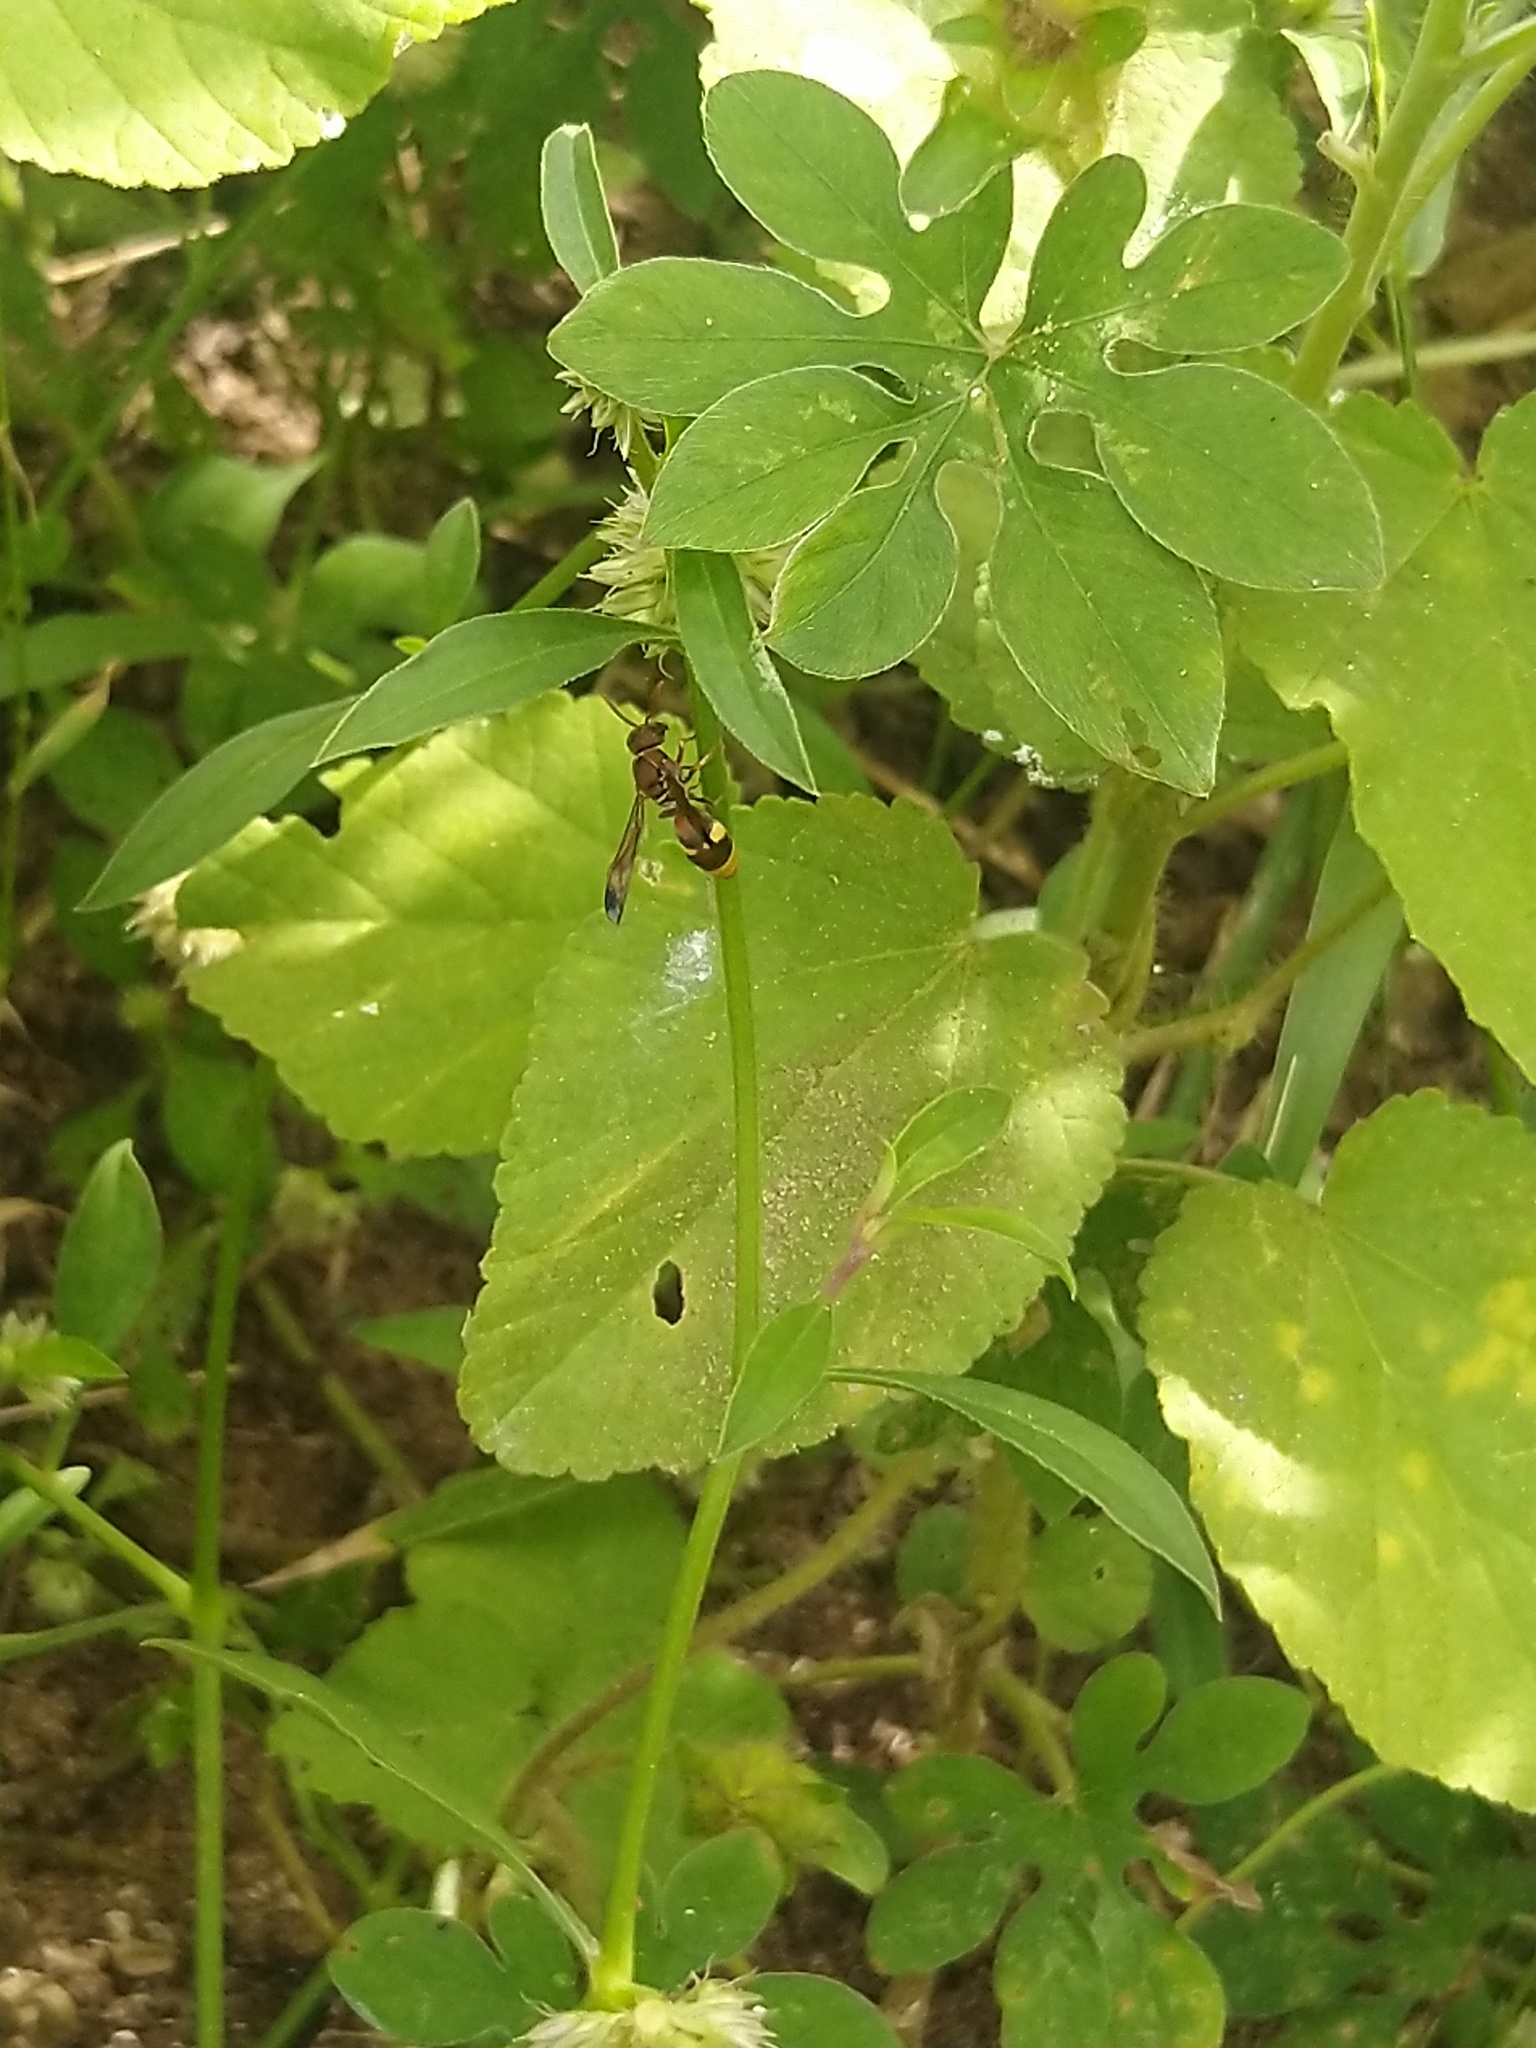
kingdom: Animalia
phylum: Arthropoda
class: Insecta
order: Hymenoptera
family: Eumenidae
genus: Antodynerus
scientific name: Antodynerus punctatipennis
